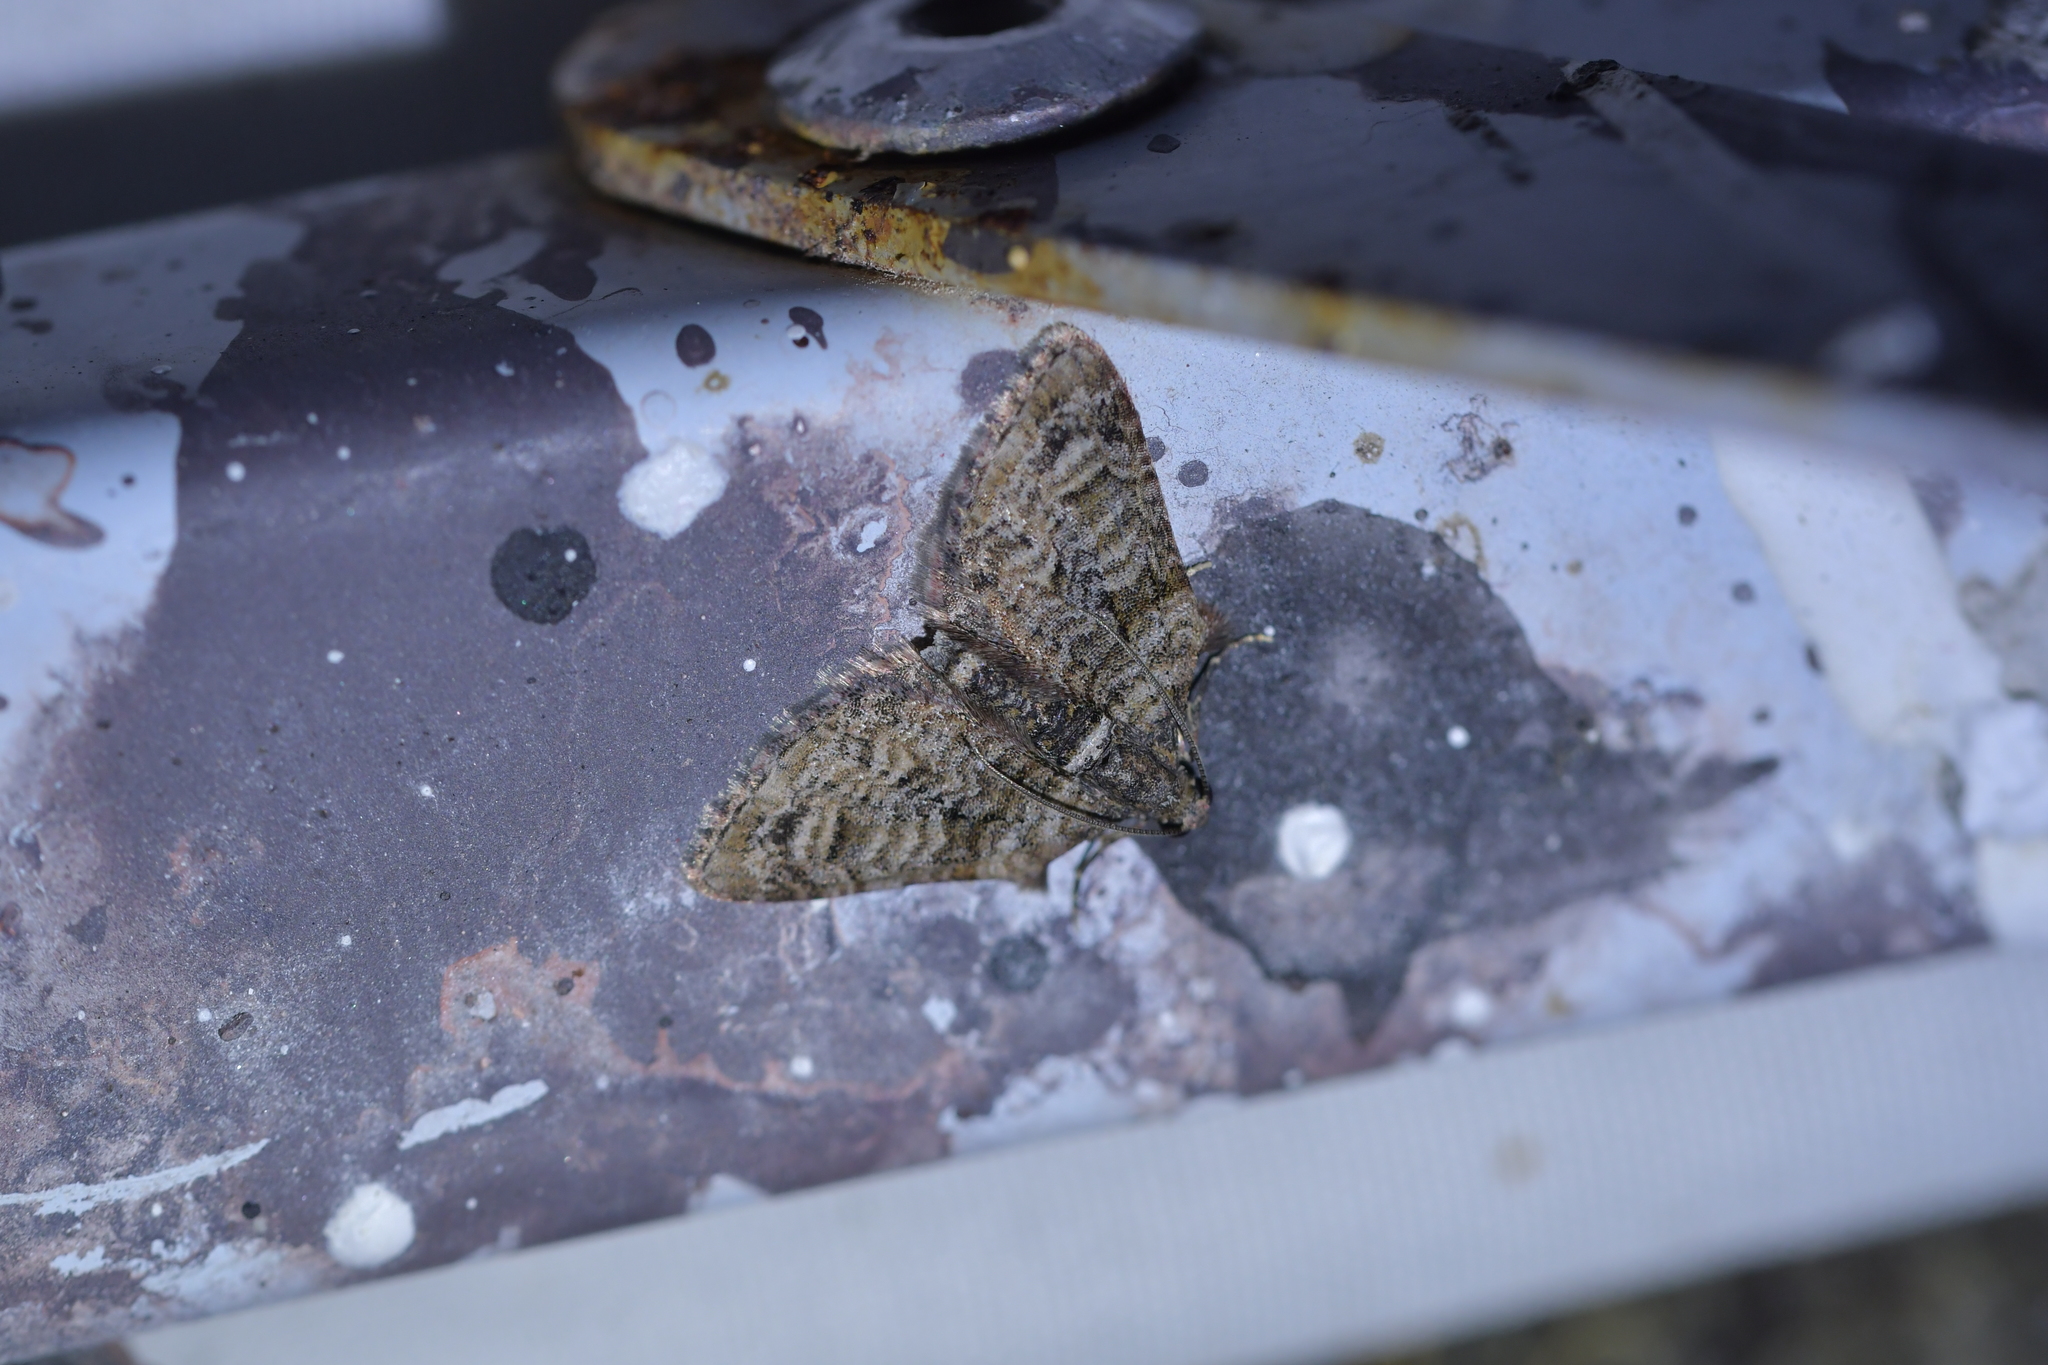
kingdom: Animalia
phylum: Arthropoda
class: Insecta
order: Lepidoptera
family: Geometridae
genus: Phrissogonus
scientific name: Phrissogonus laticostata
